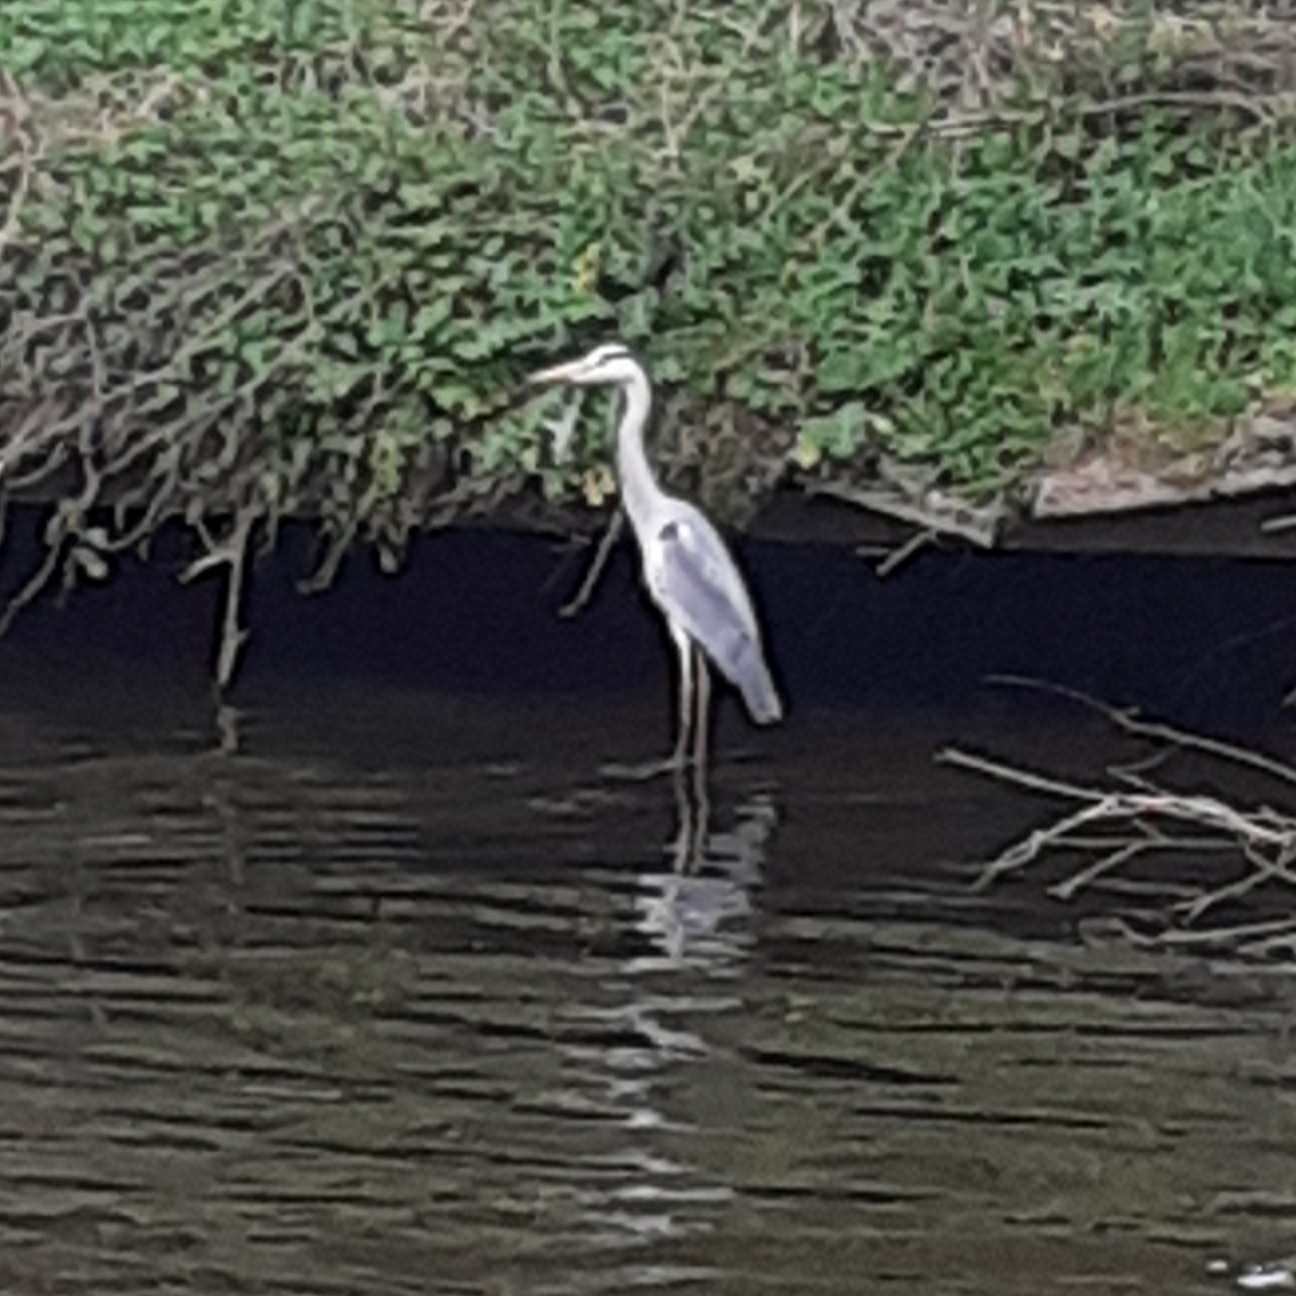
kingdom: Animalia
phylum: Chordata
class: Aves
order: Pelecaniformes
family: Ardeidae
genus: Ardea
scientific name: Ardea cinerea
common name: Grey heron
